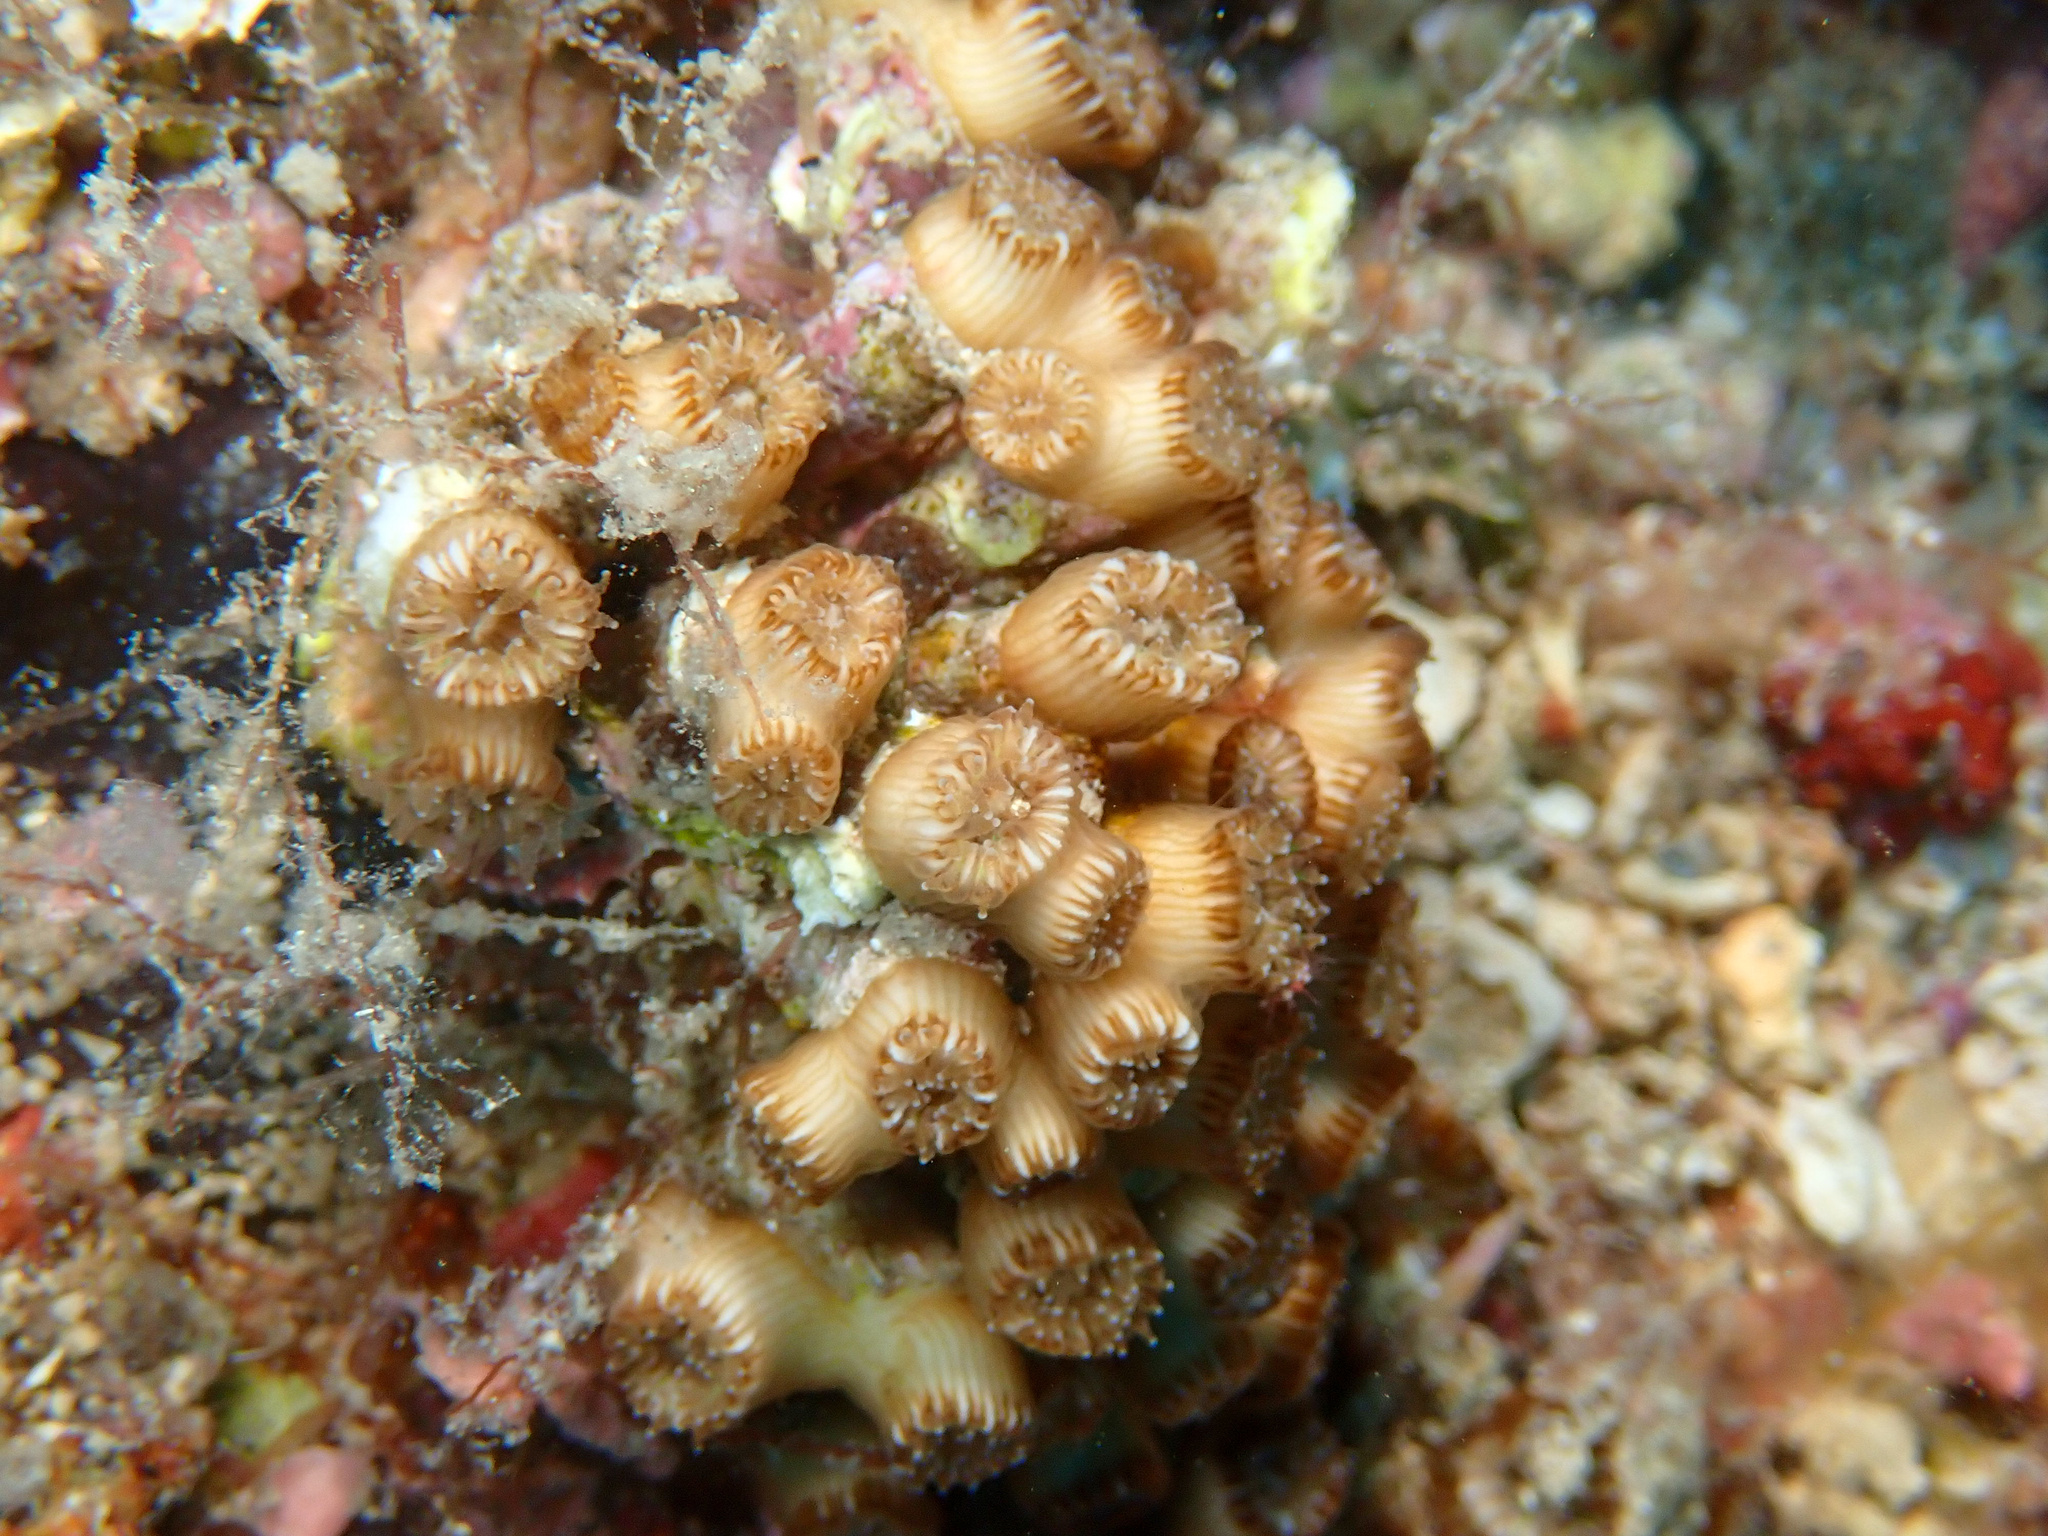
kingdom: Animalia
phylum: Cnidaria
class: Anthozoa
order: Scleractinia
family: Cladocoridae
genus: Cladocora
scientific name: Cladocora caespitosa
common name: Cladocora
